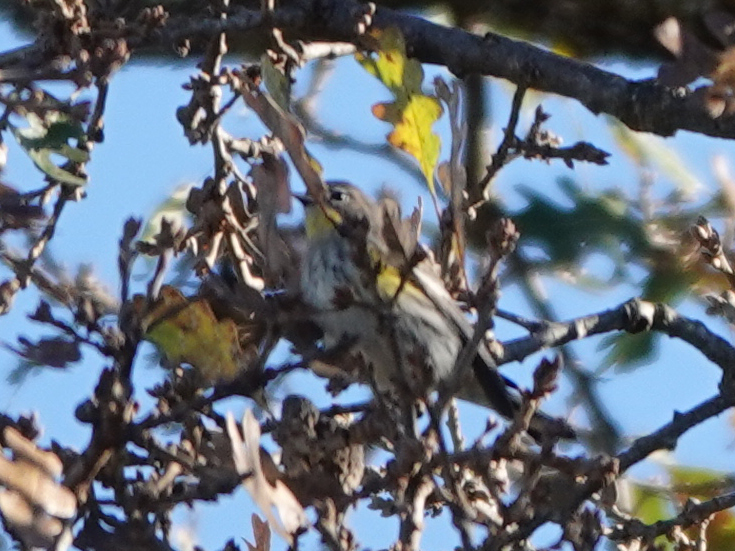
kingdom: Animalia
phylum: Chordata
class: Aves
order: Passeriformes
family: Parulidae
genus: Setophaga
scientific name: Setophaga coronata
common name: Myrtle warbler
